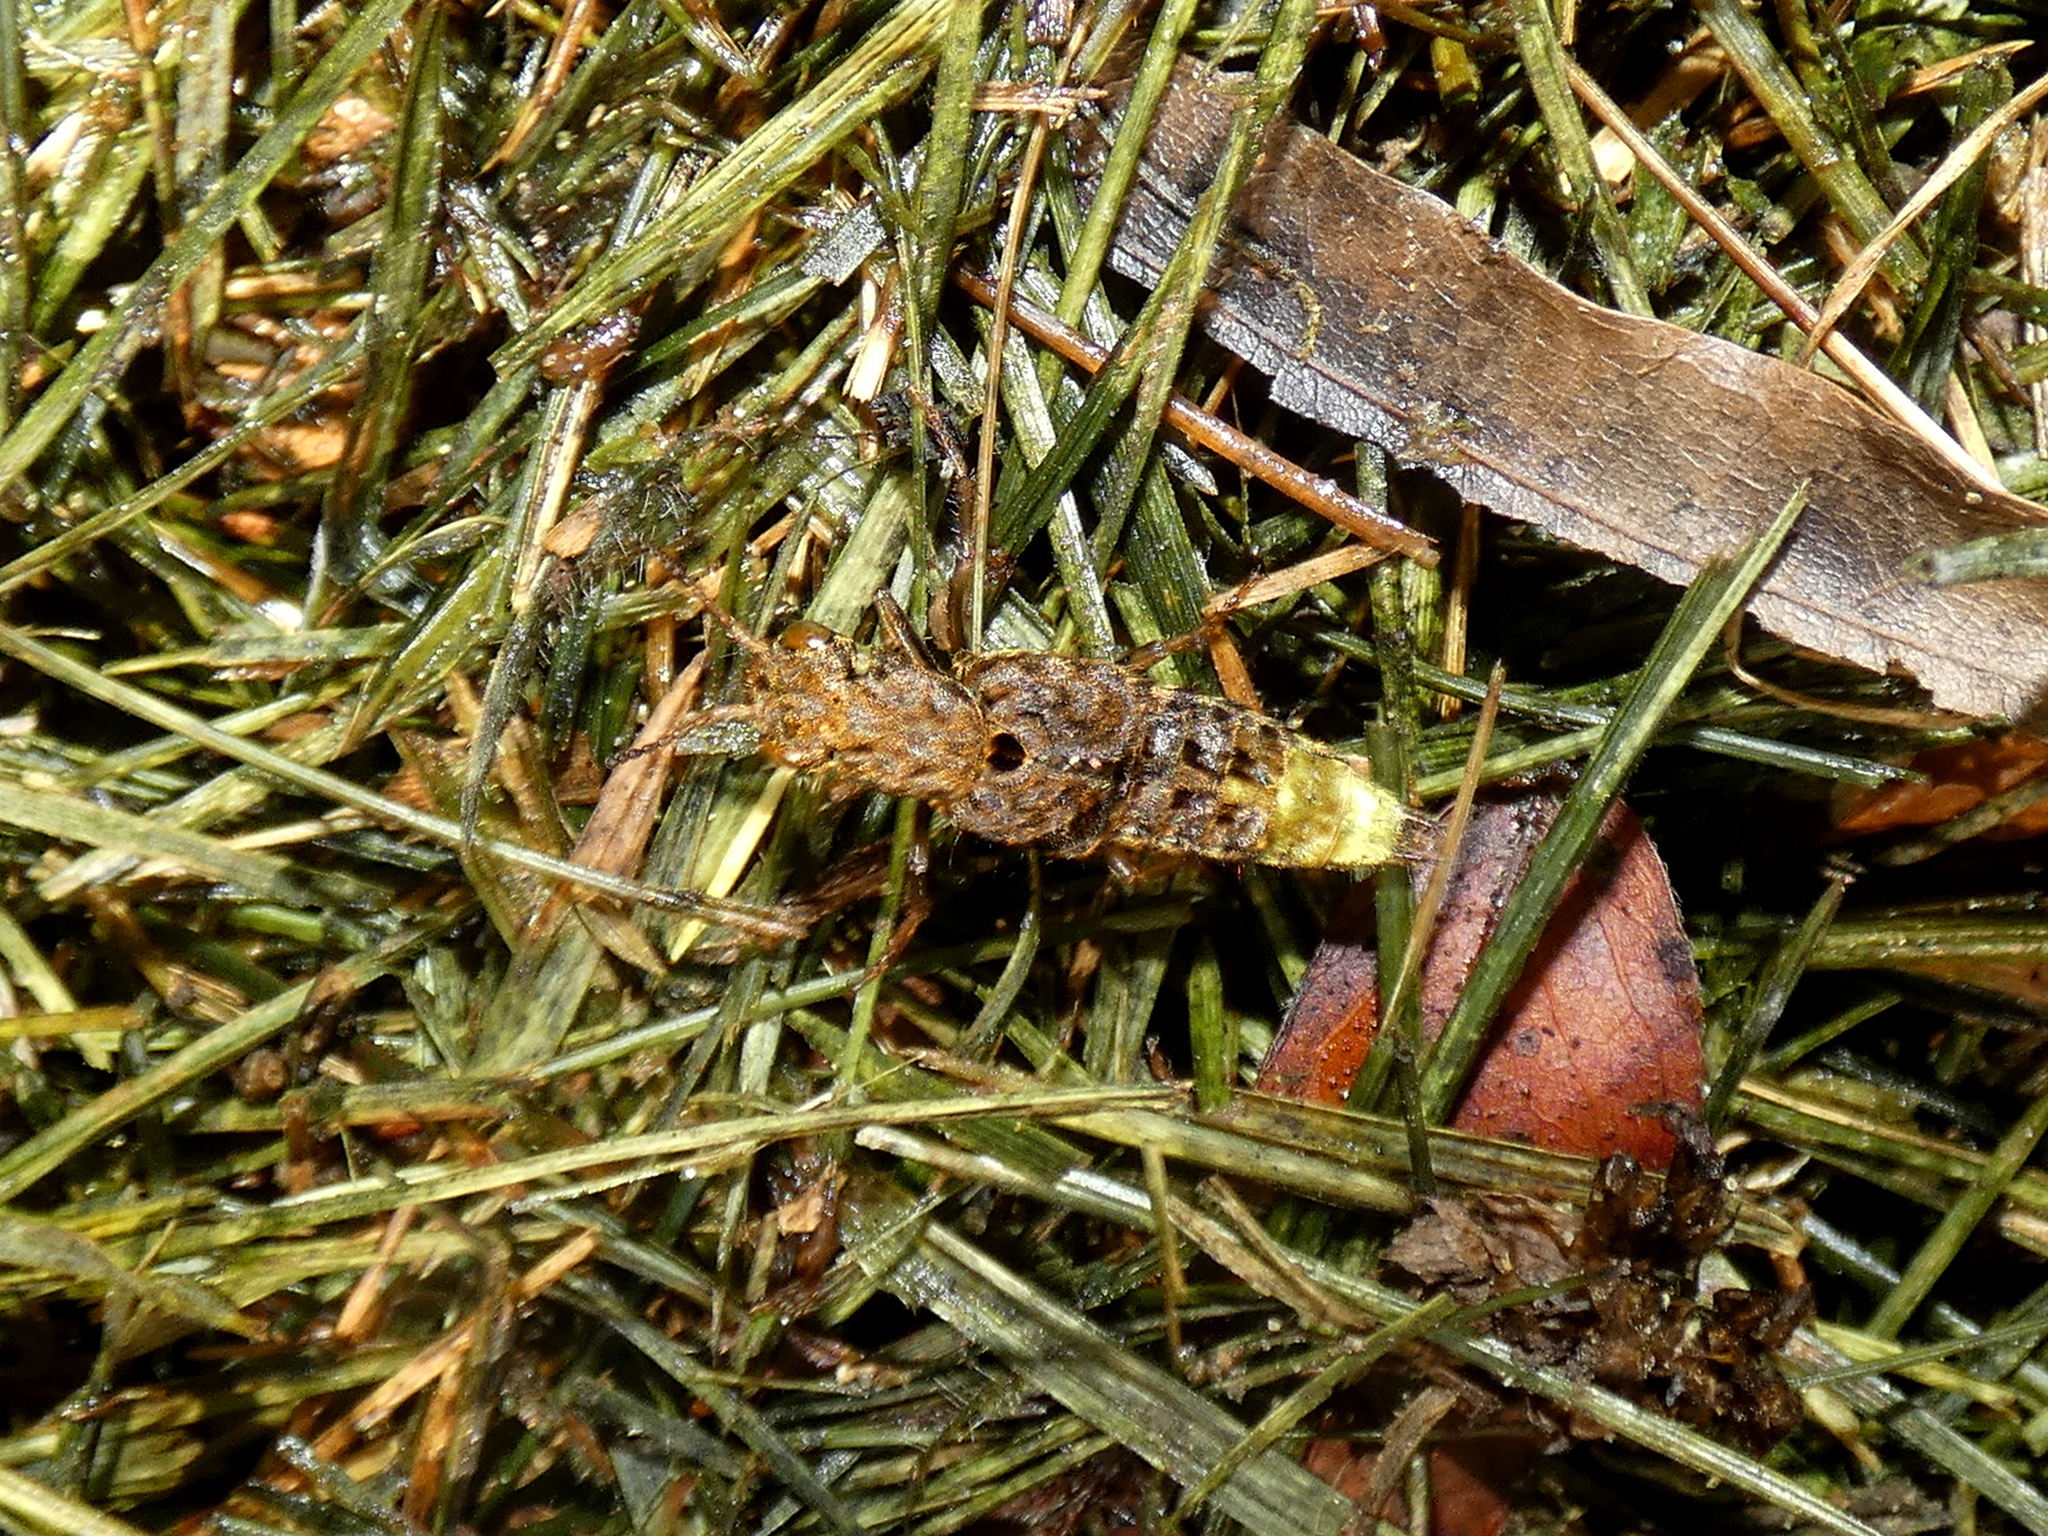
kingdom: Animalia
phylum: Arthropoda
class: Insecta
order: Coleoptera
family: Staphylinidae
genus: Ontholestes
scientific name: Ontholestes cingulatus
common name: Gold-and-brown rove beetle
